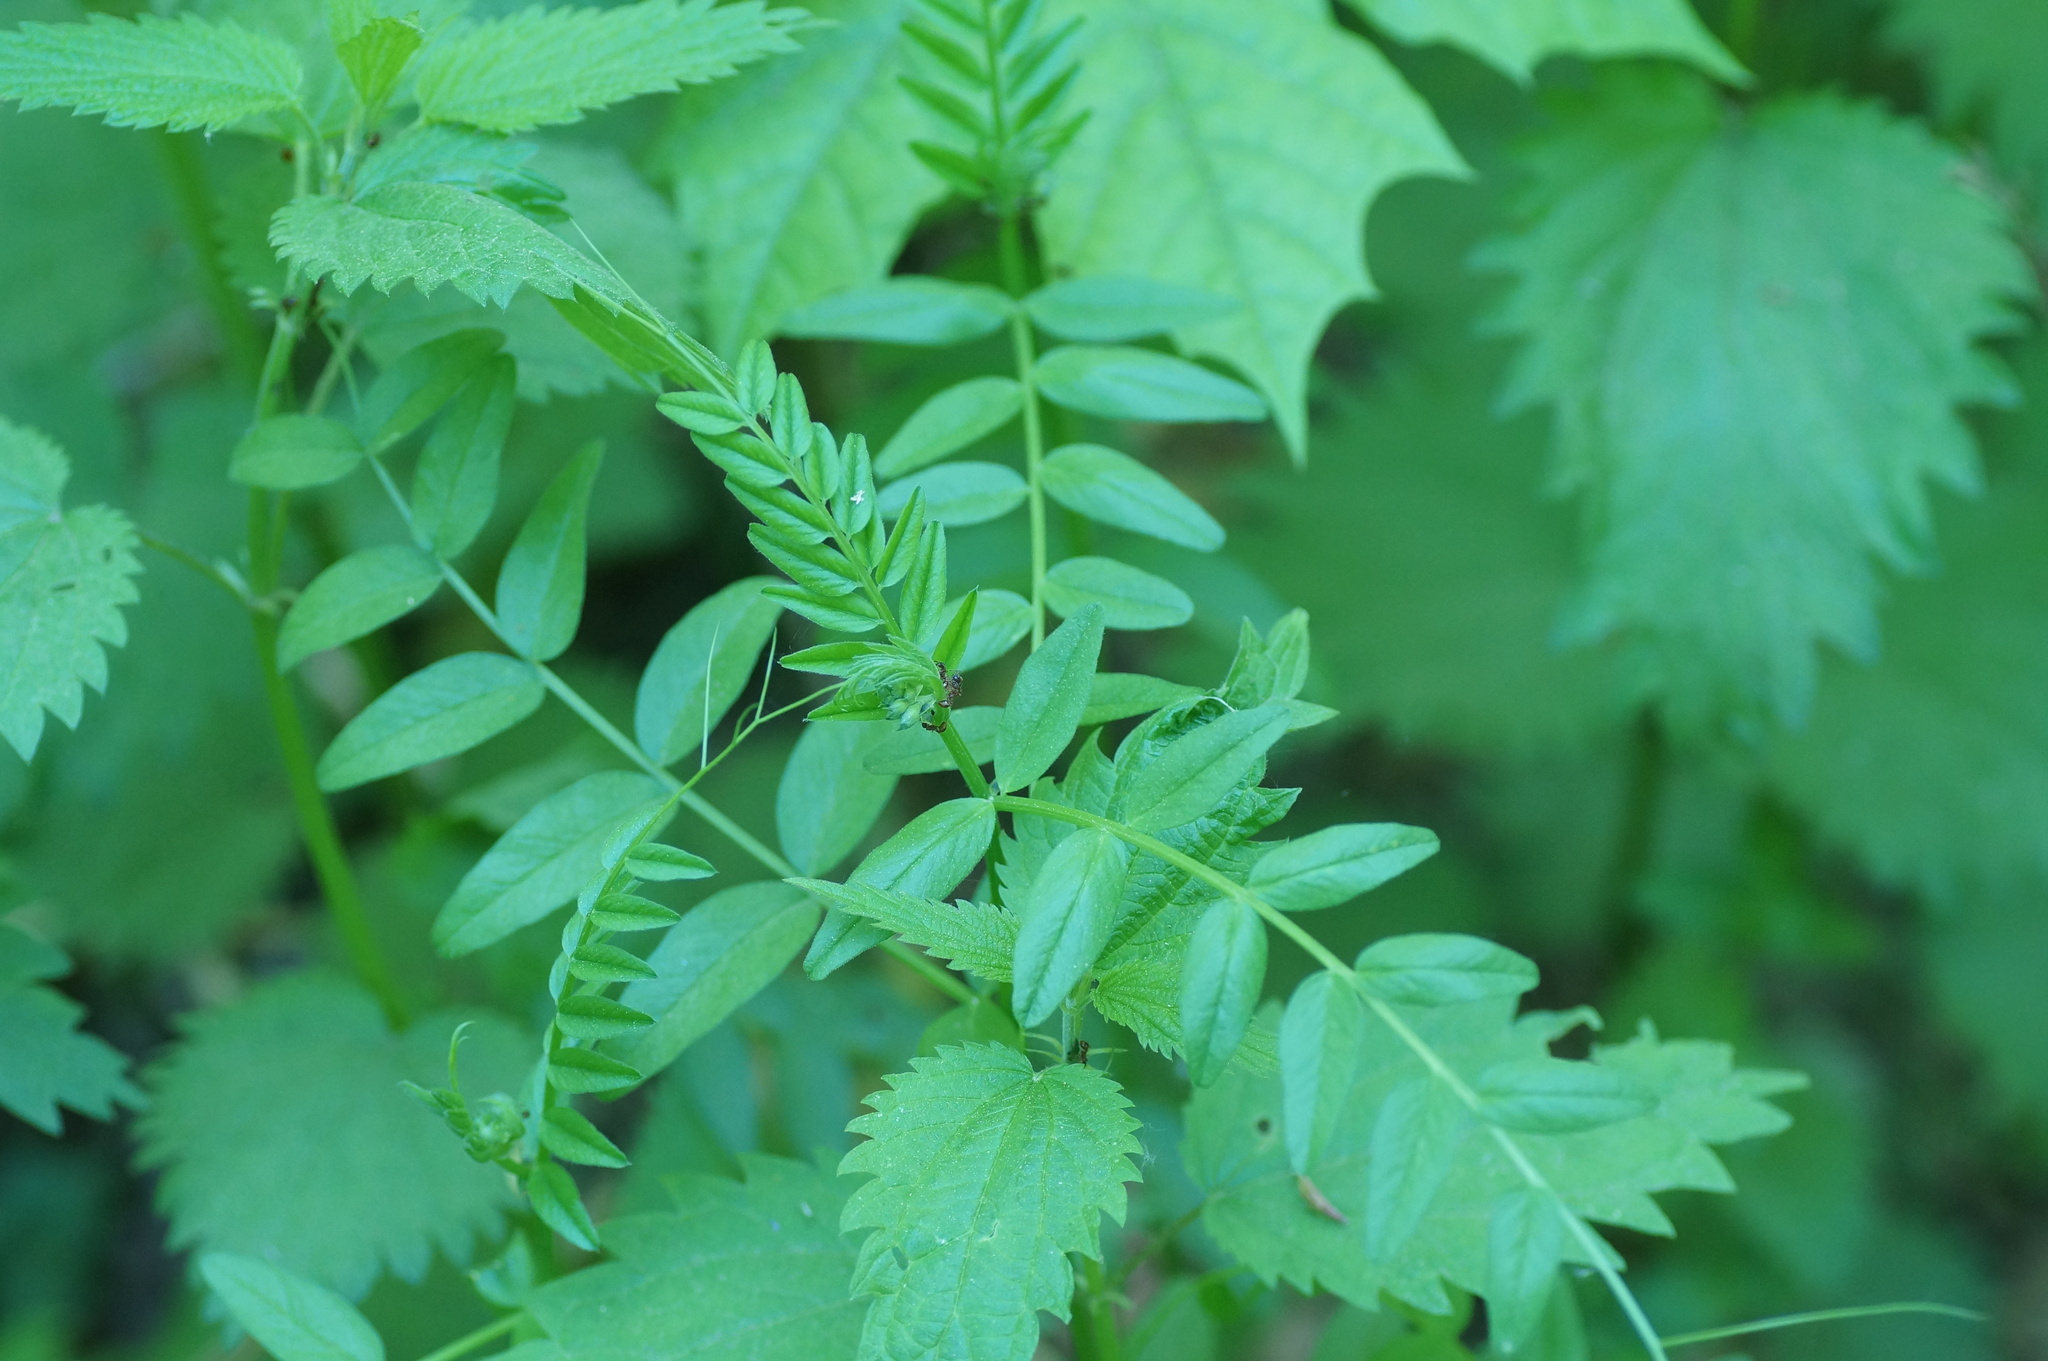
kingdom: Plantae
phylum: Tracheophyta
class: Magnoliopsida
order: Fabales
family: Fabaceae
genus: Vicia
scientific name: Vicia sepium
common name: Bush vetch
